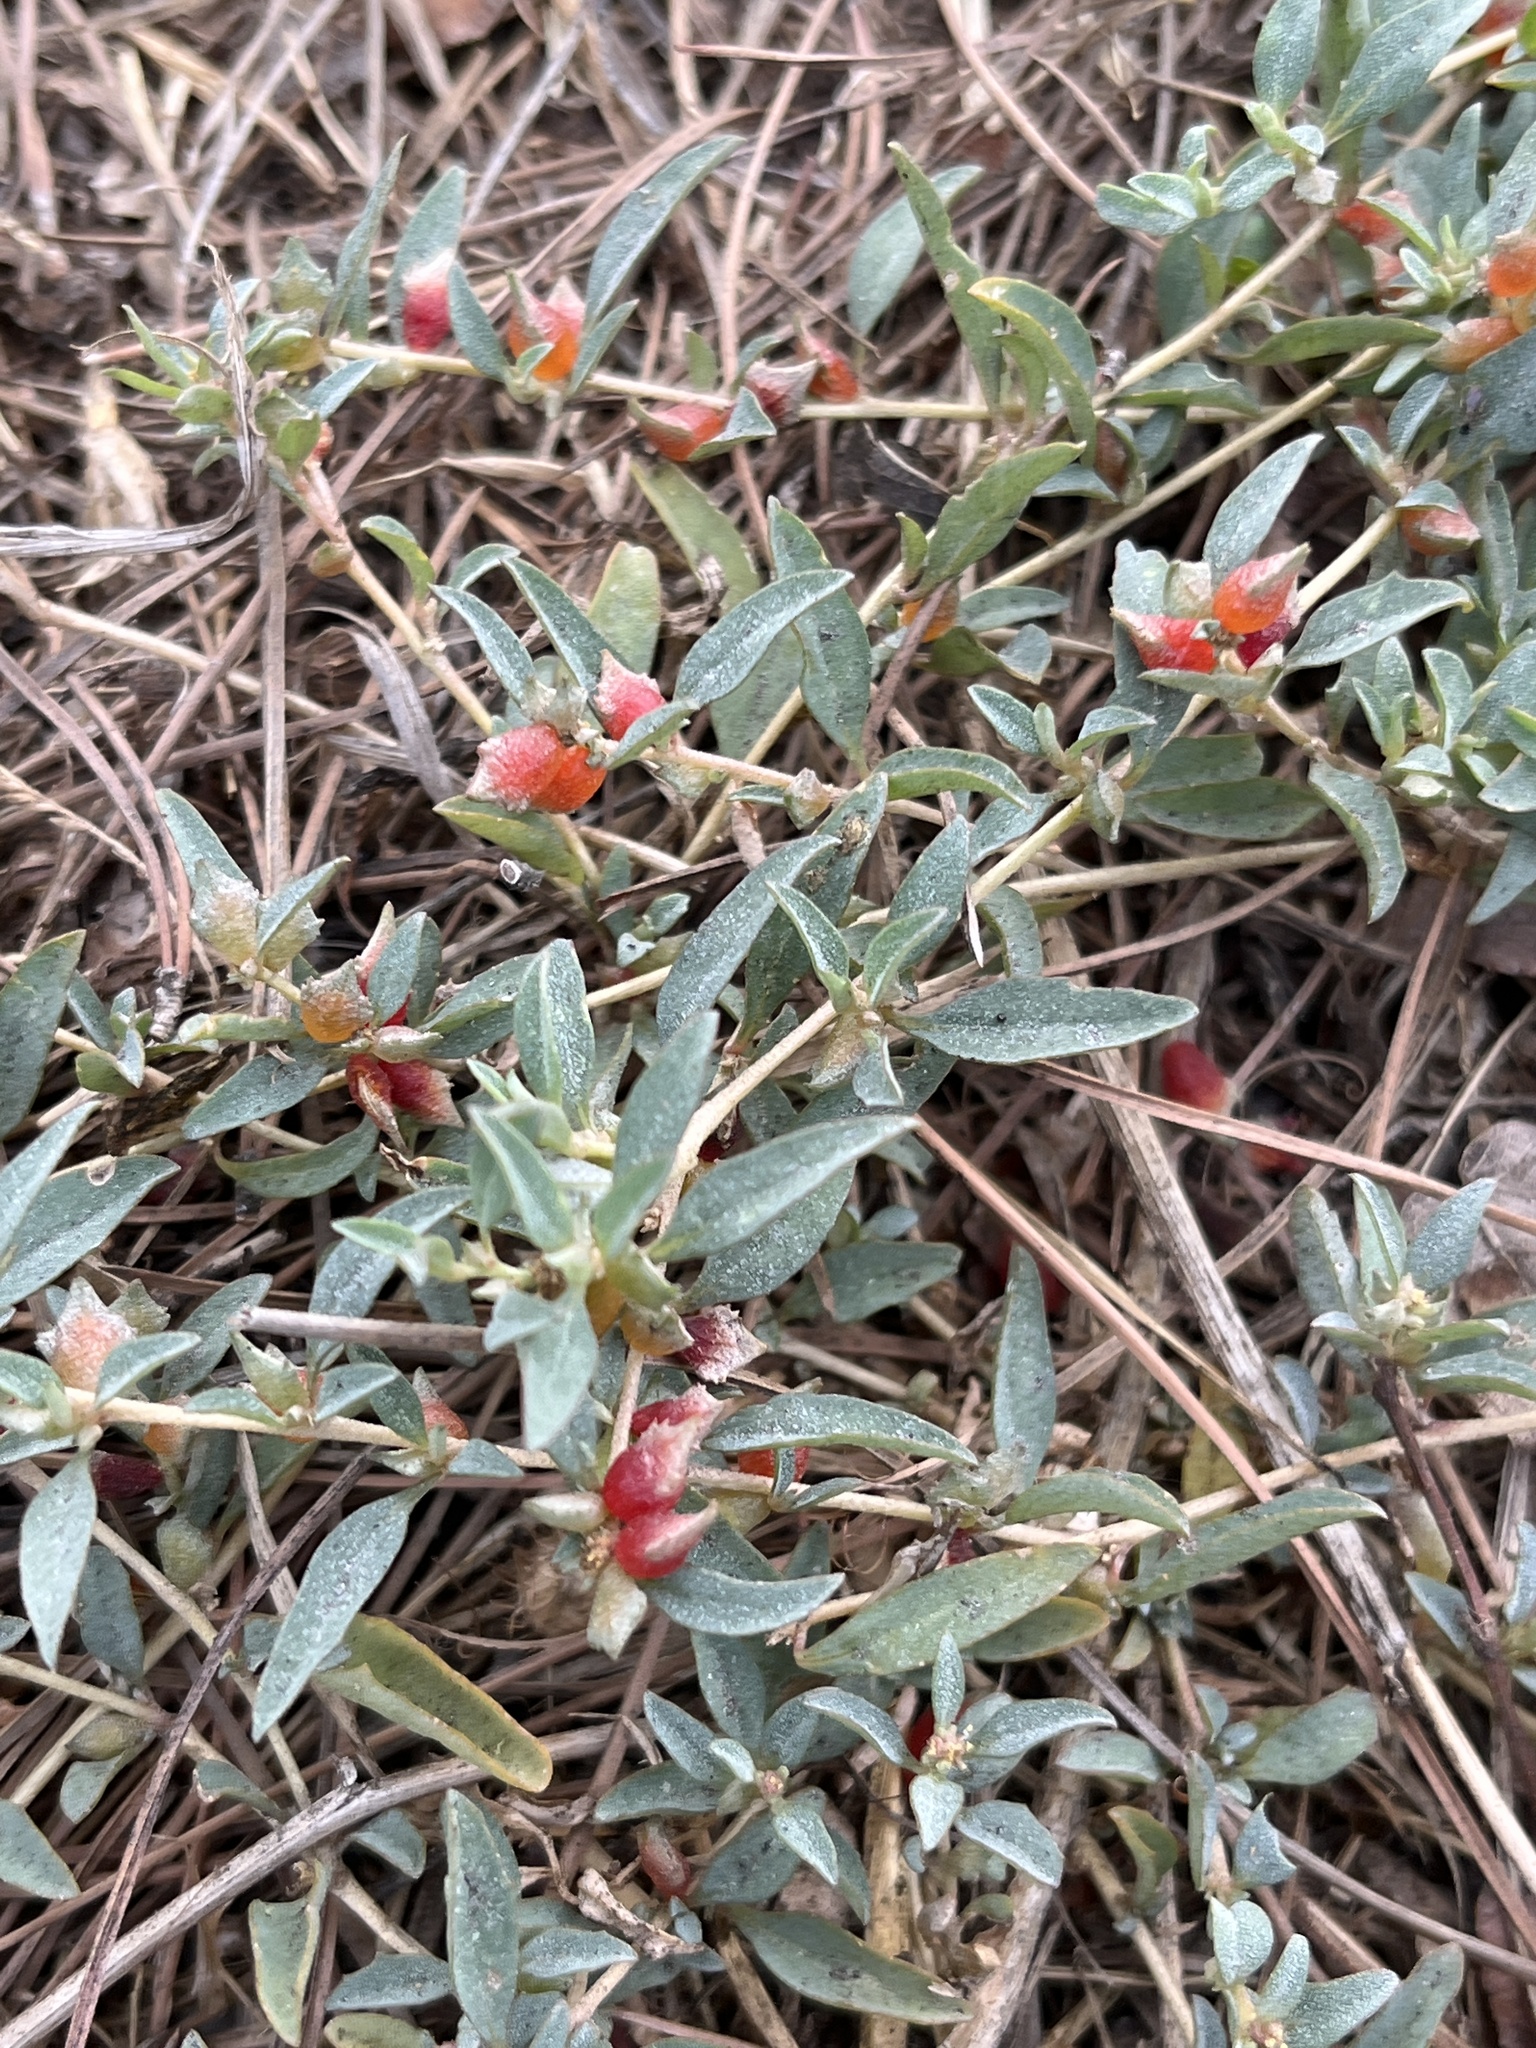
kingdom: Plantae
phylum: Tracheophyta
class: Magnoliopsida
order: Caryophyllales
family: Amaranthaceae
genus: Atriplex
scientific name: Atriplex semibaccata
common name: Australian saltbush
